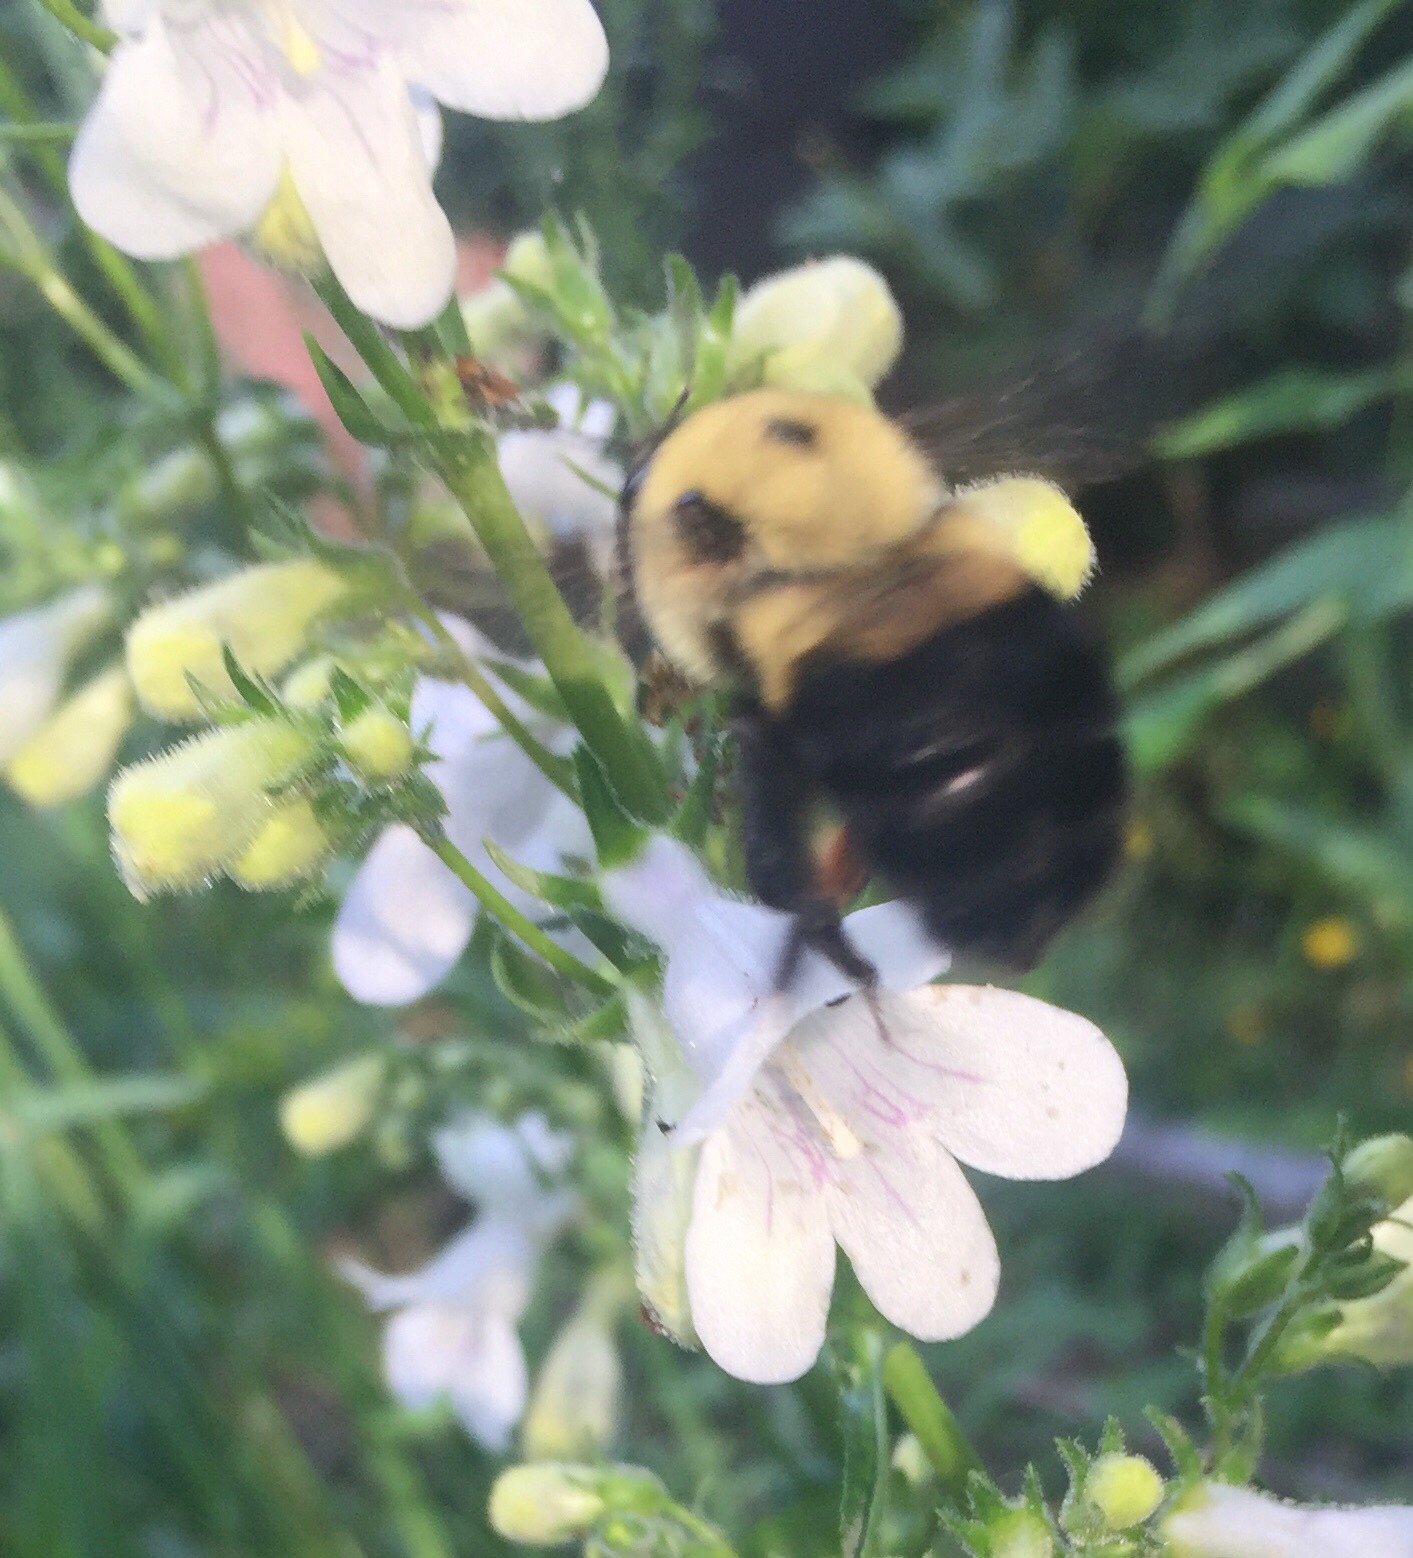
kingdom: Animalia
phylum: Arthropoda
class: Insecta
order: Hymenoptera
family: Apidae
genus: Bombus
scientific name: Bombus griseocollis
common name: Brown-belted bumble bee
